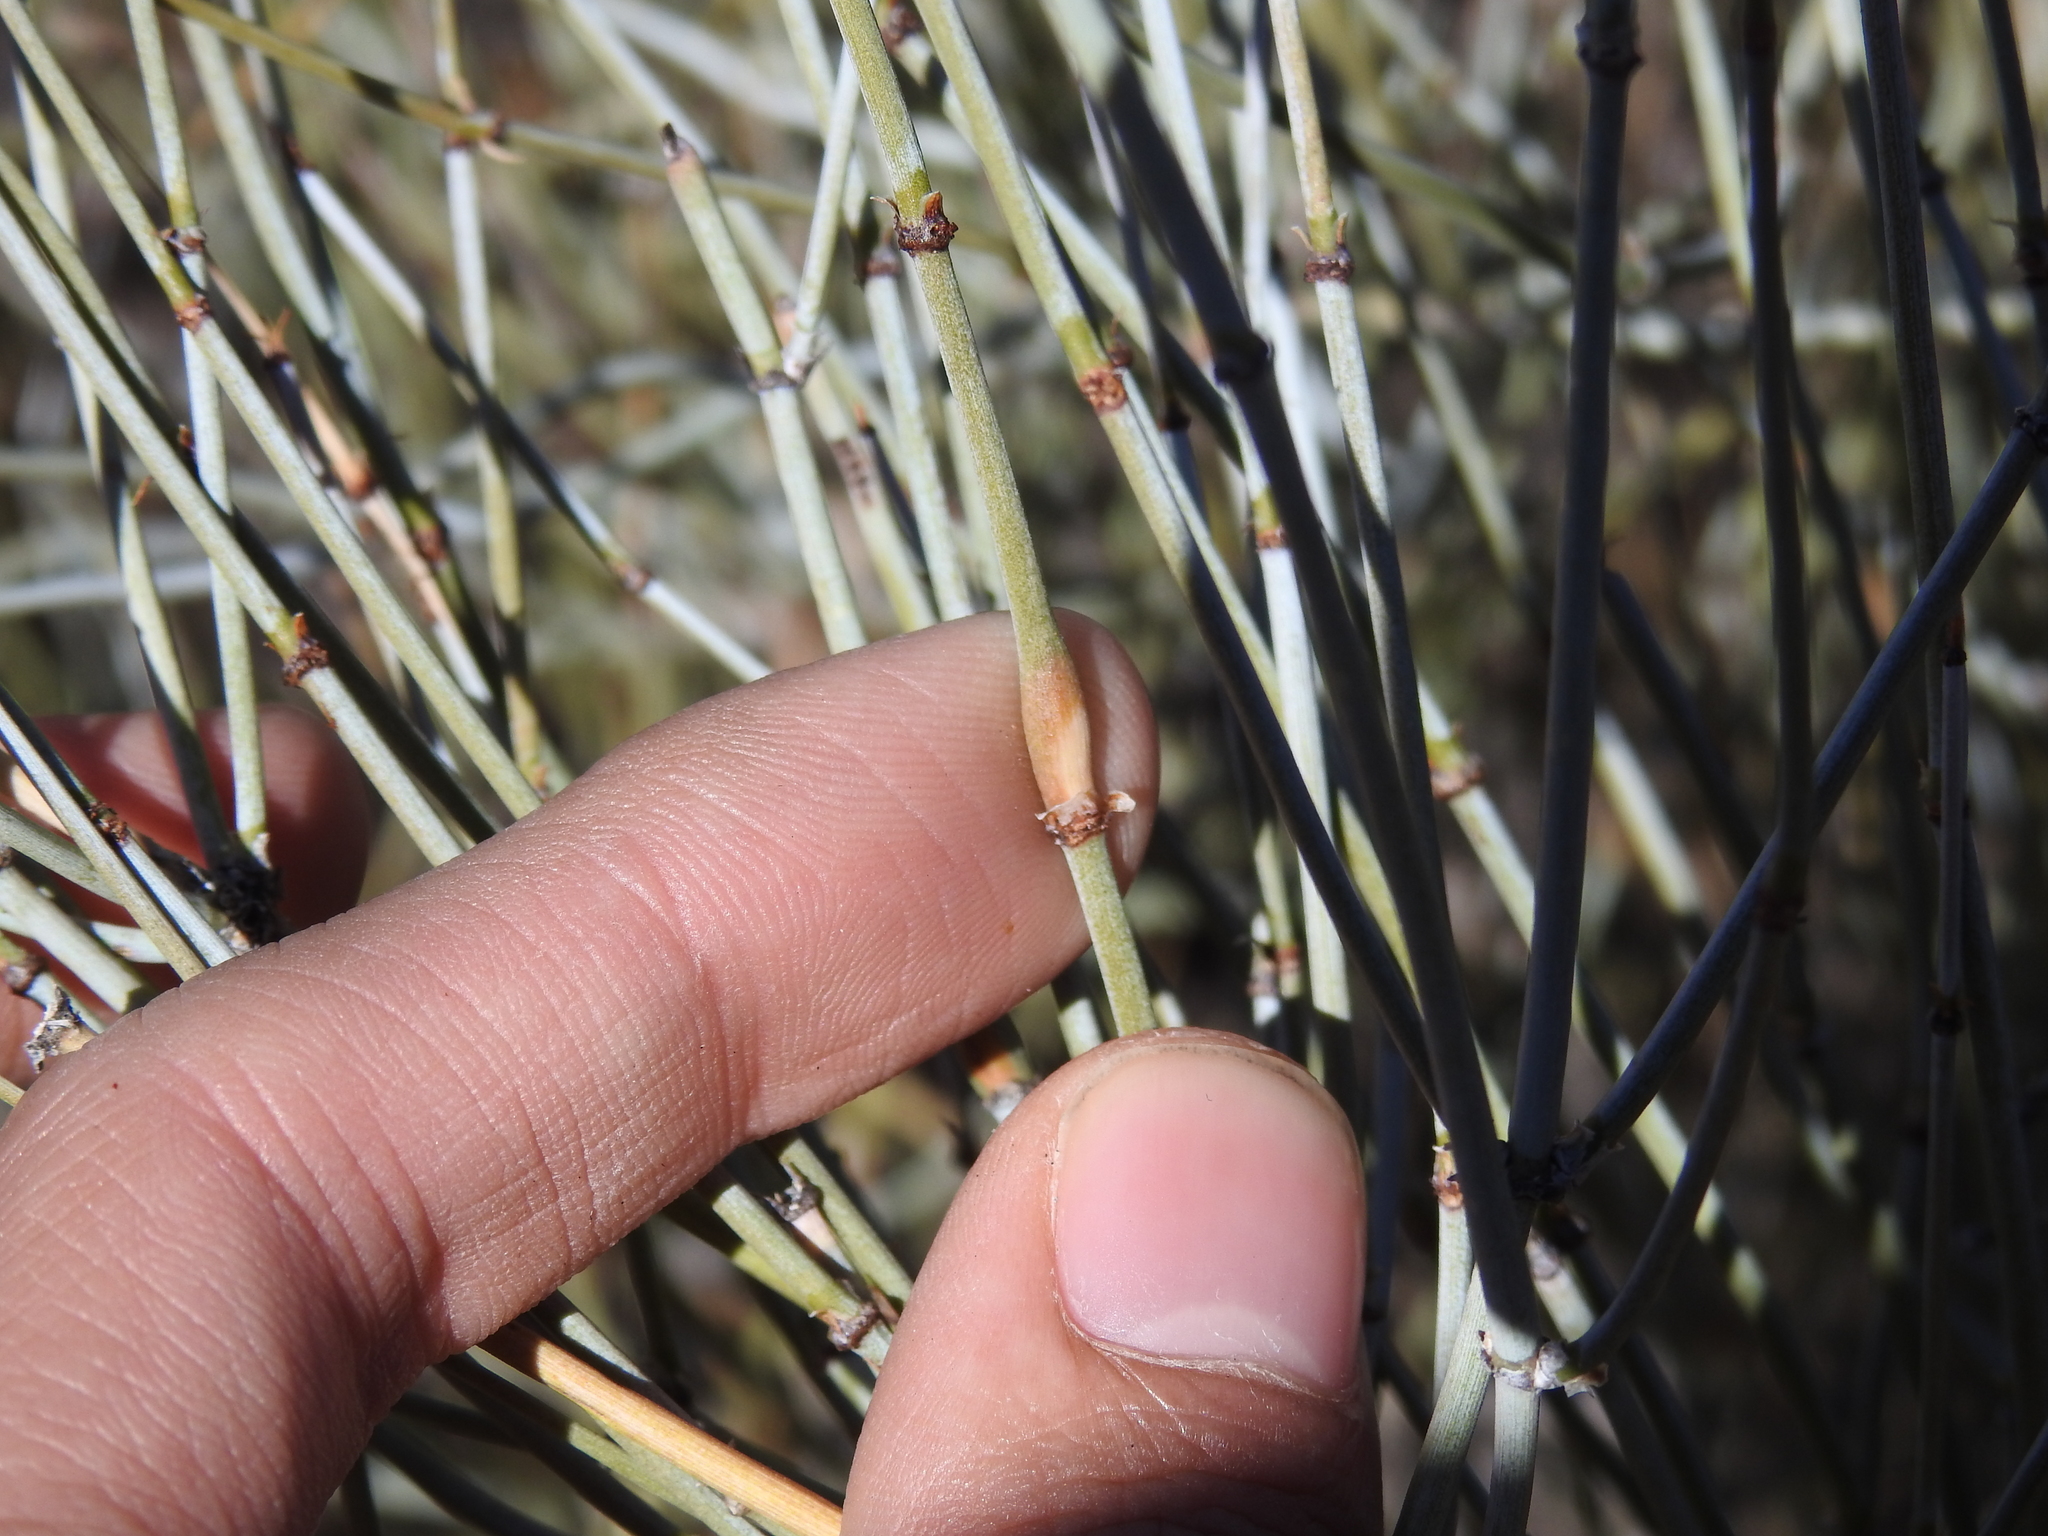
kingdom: Animalia
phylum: Arthropoda
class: Insecta
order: Diptera
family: Cecidomyiidae
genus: Lasioptera
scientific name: Lasioptera ephedrae
